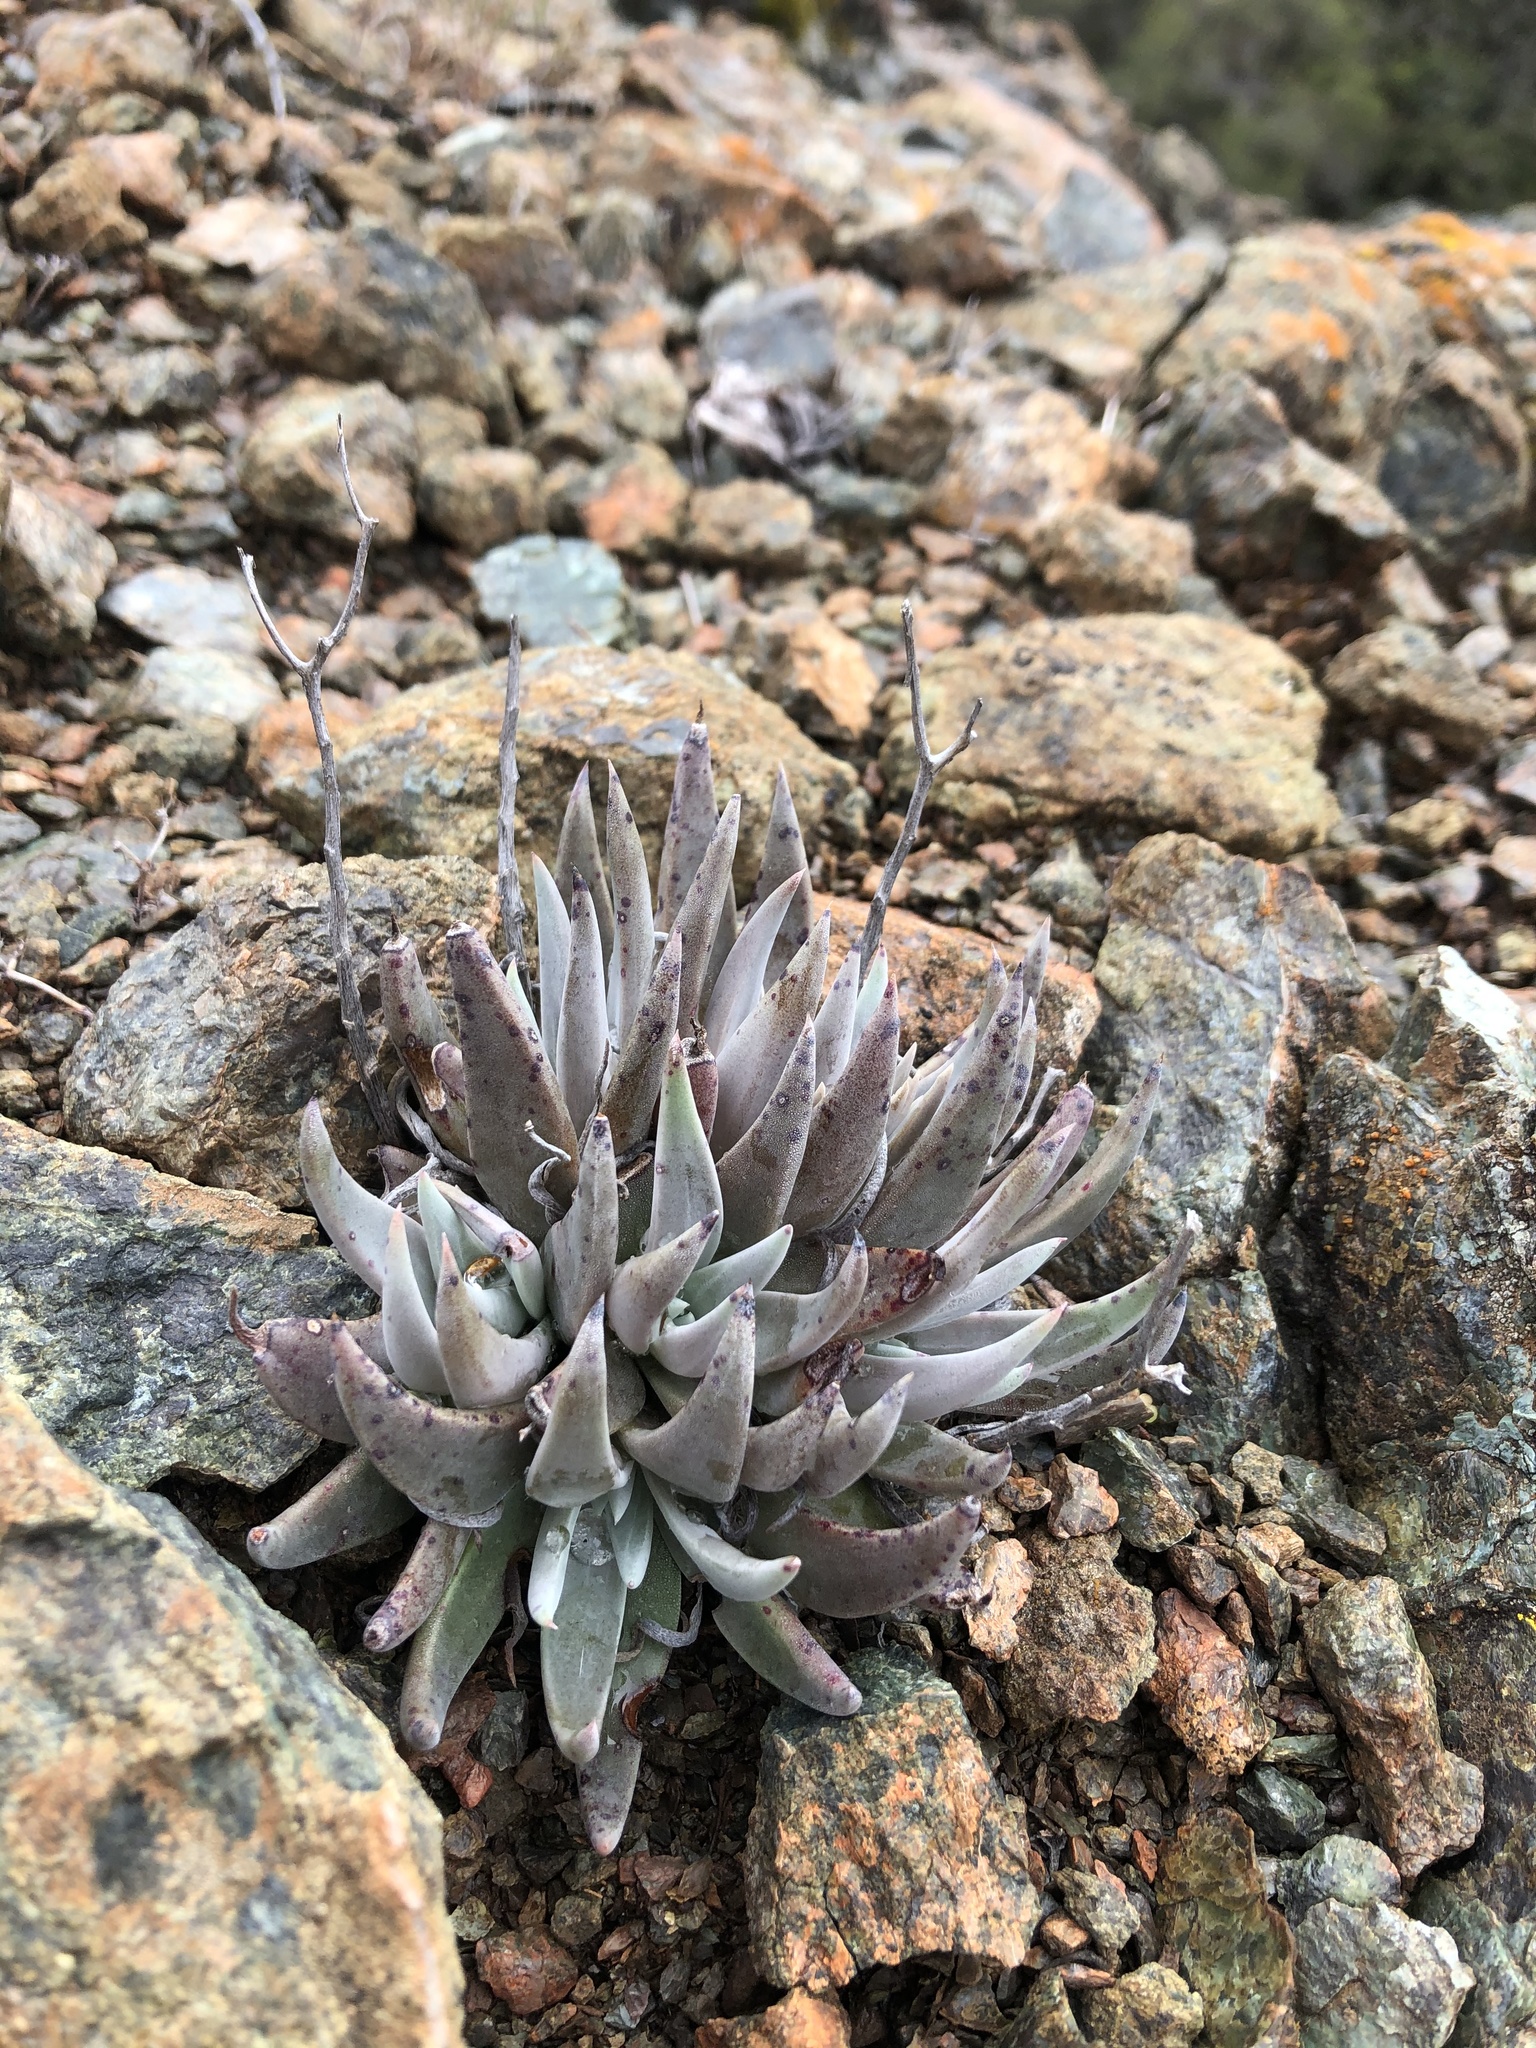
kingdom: Plantae
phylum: Tracheophyta
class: Magnoliopsida
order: Saxifragales
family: Crassulaceae
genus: Dudleya
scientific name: Dudleya abramsii
